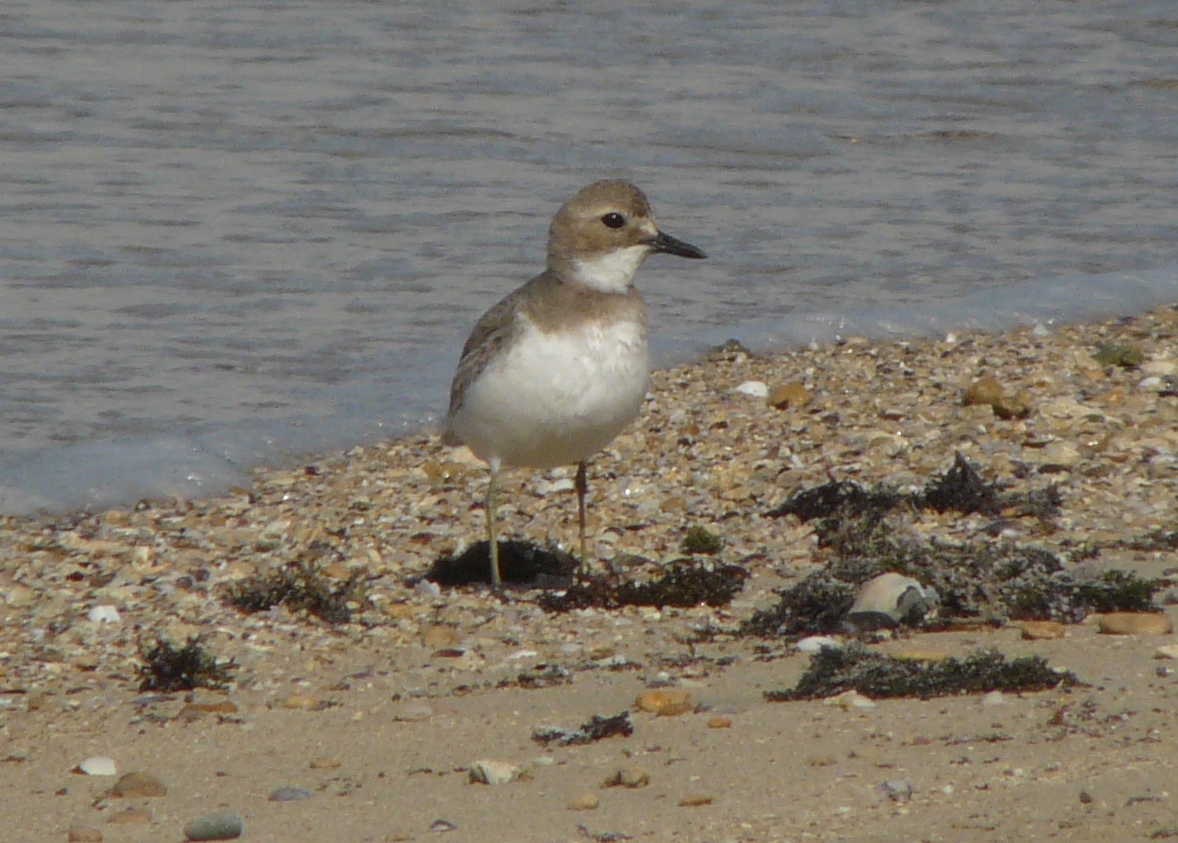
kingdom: Animalia
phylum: Chordata
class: Aves
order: Charadriiformes
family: Charadriidae
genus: Charadrius
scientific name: Charadrius leschenaultii
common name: Greater sand plover
